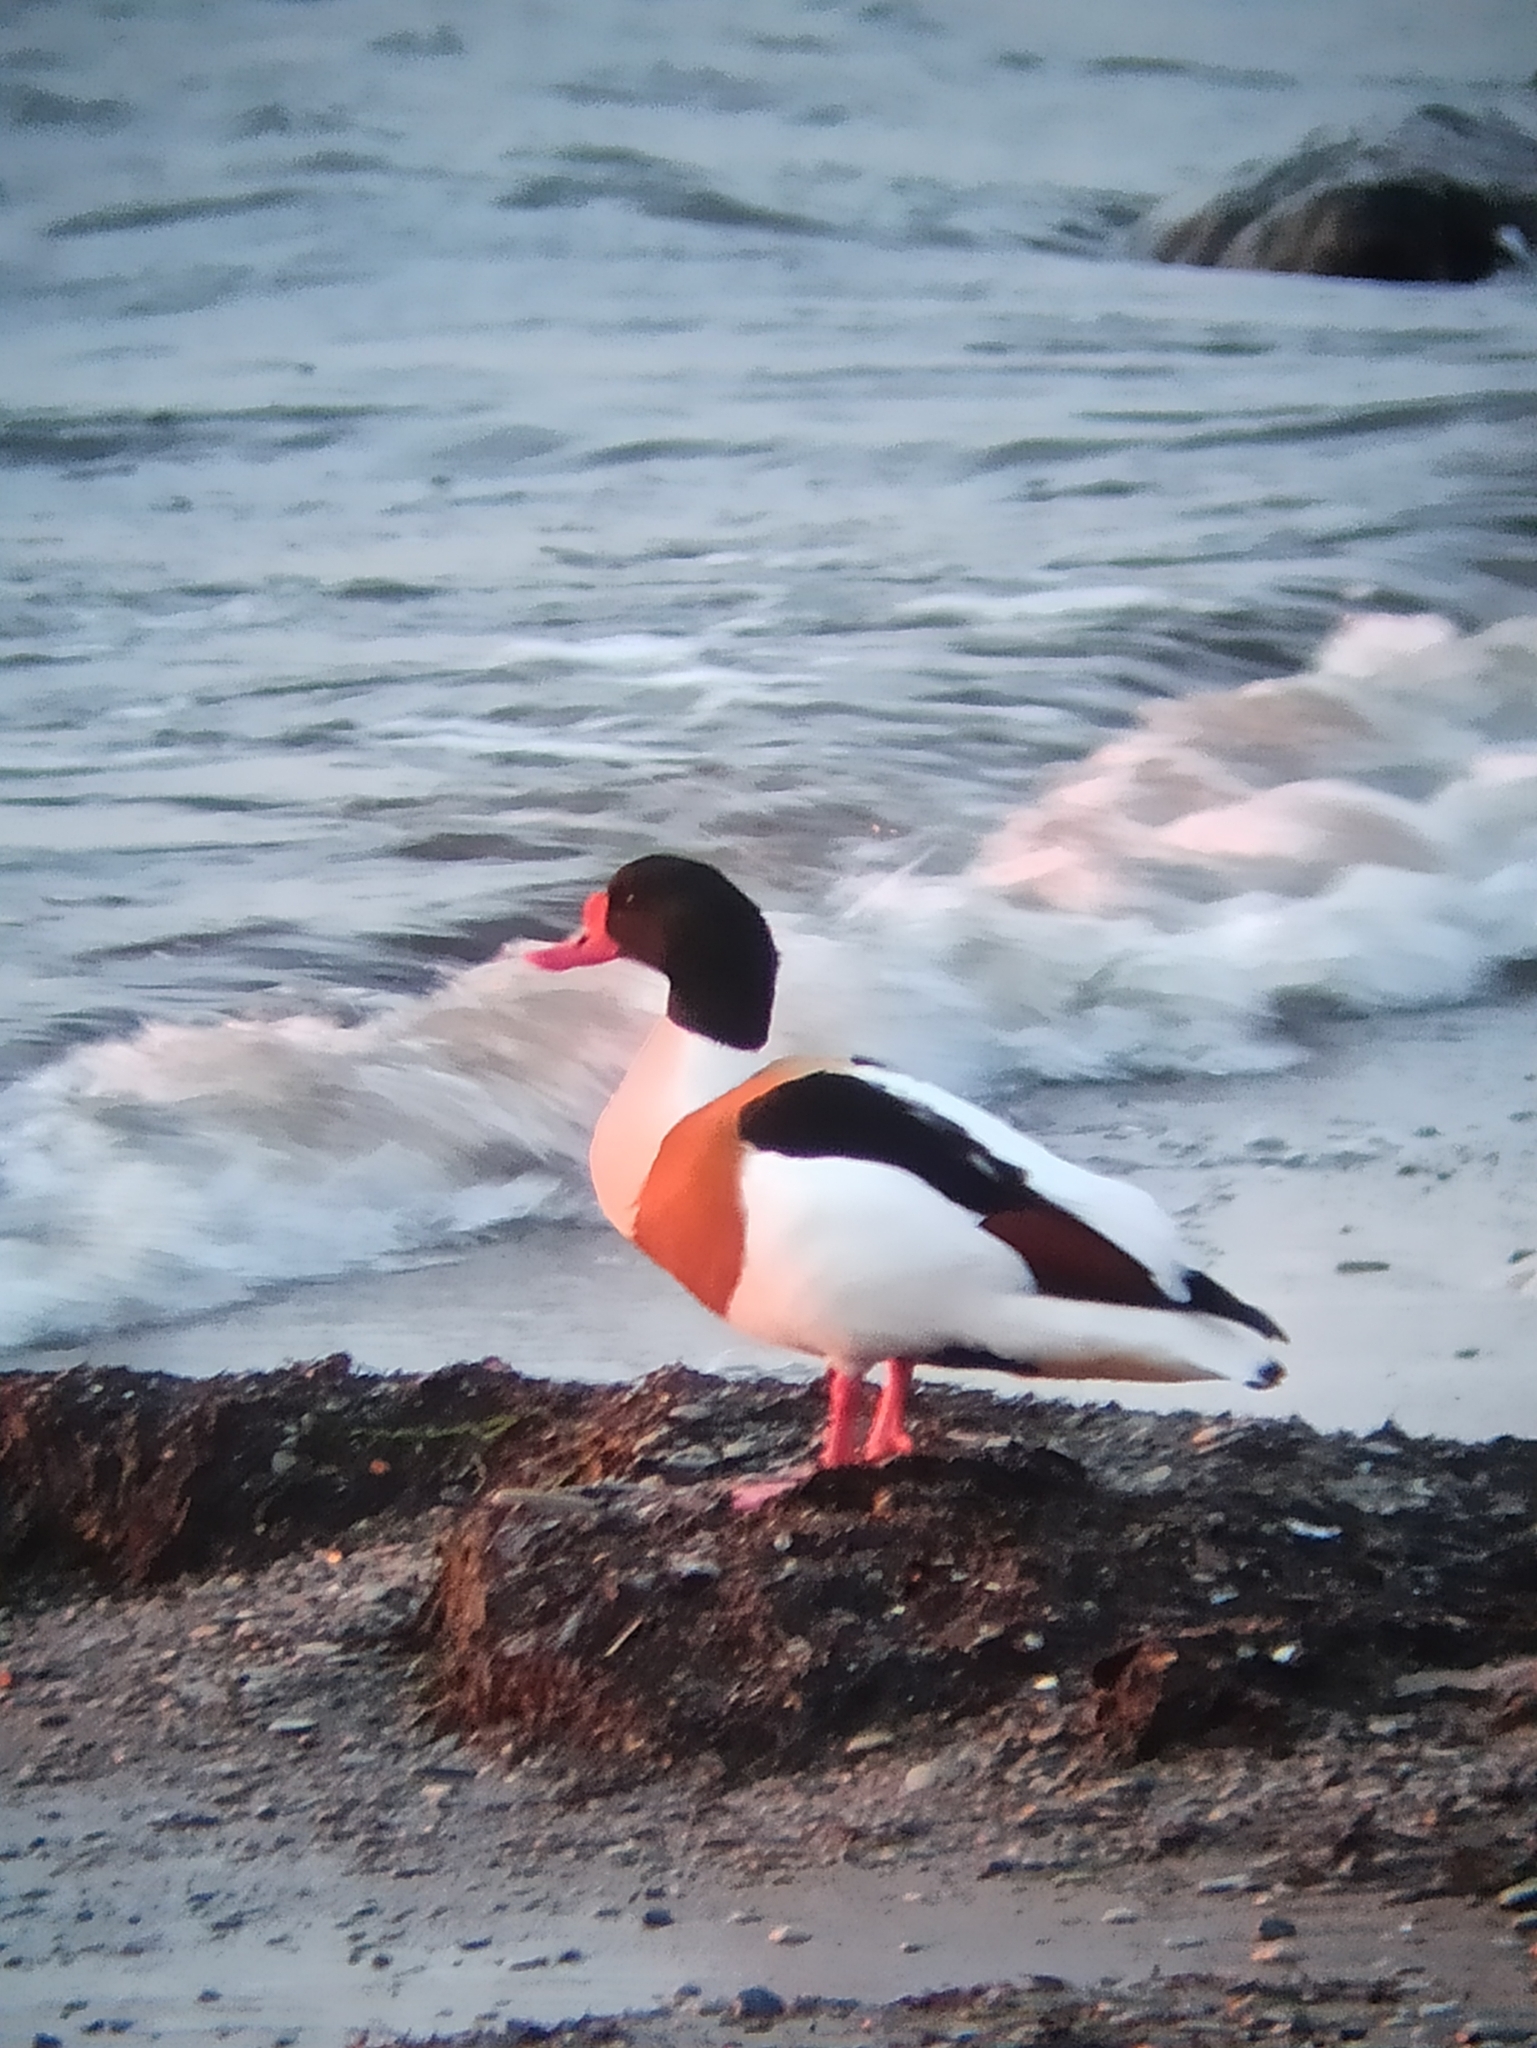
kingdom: Animalia
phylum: Chordata
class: Aves
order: Anseriformes
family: Anatidae
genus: Tadorna
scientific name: Tadorna tadorna
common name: Common shelduck
